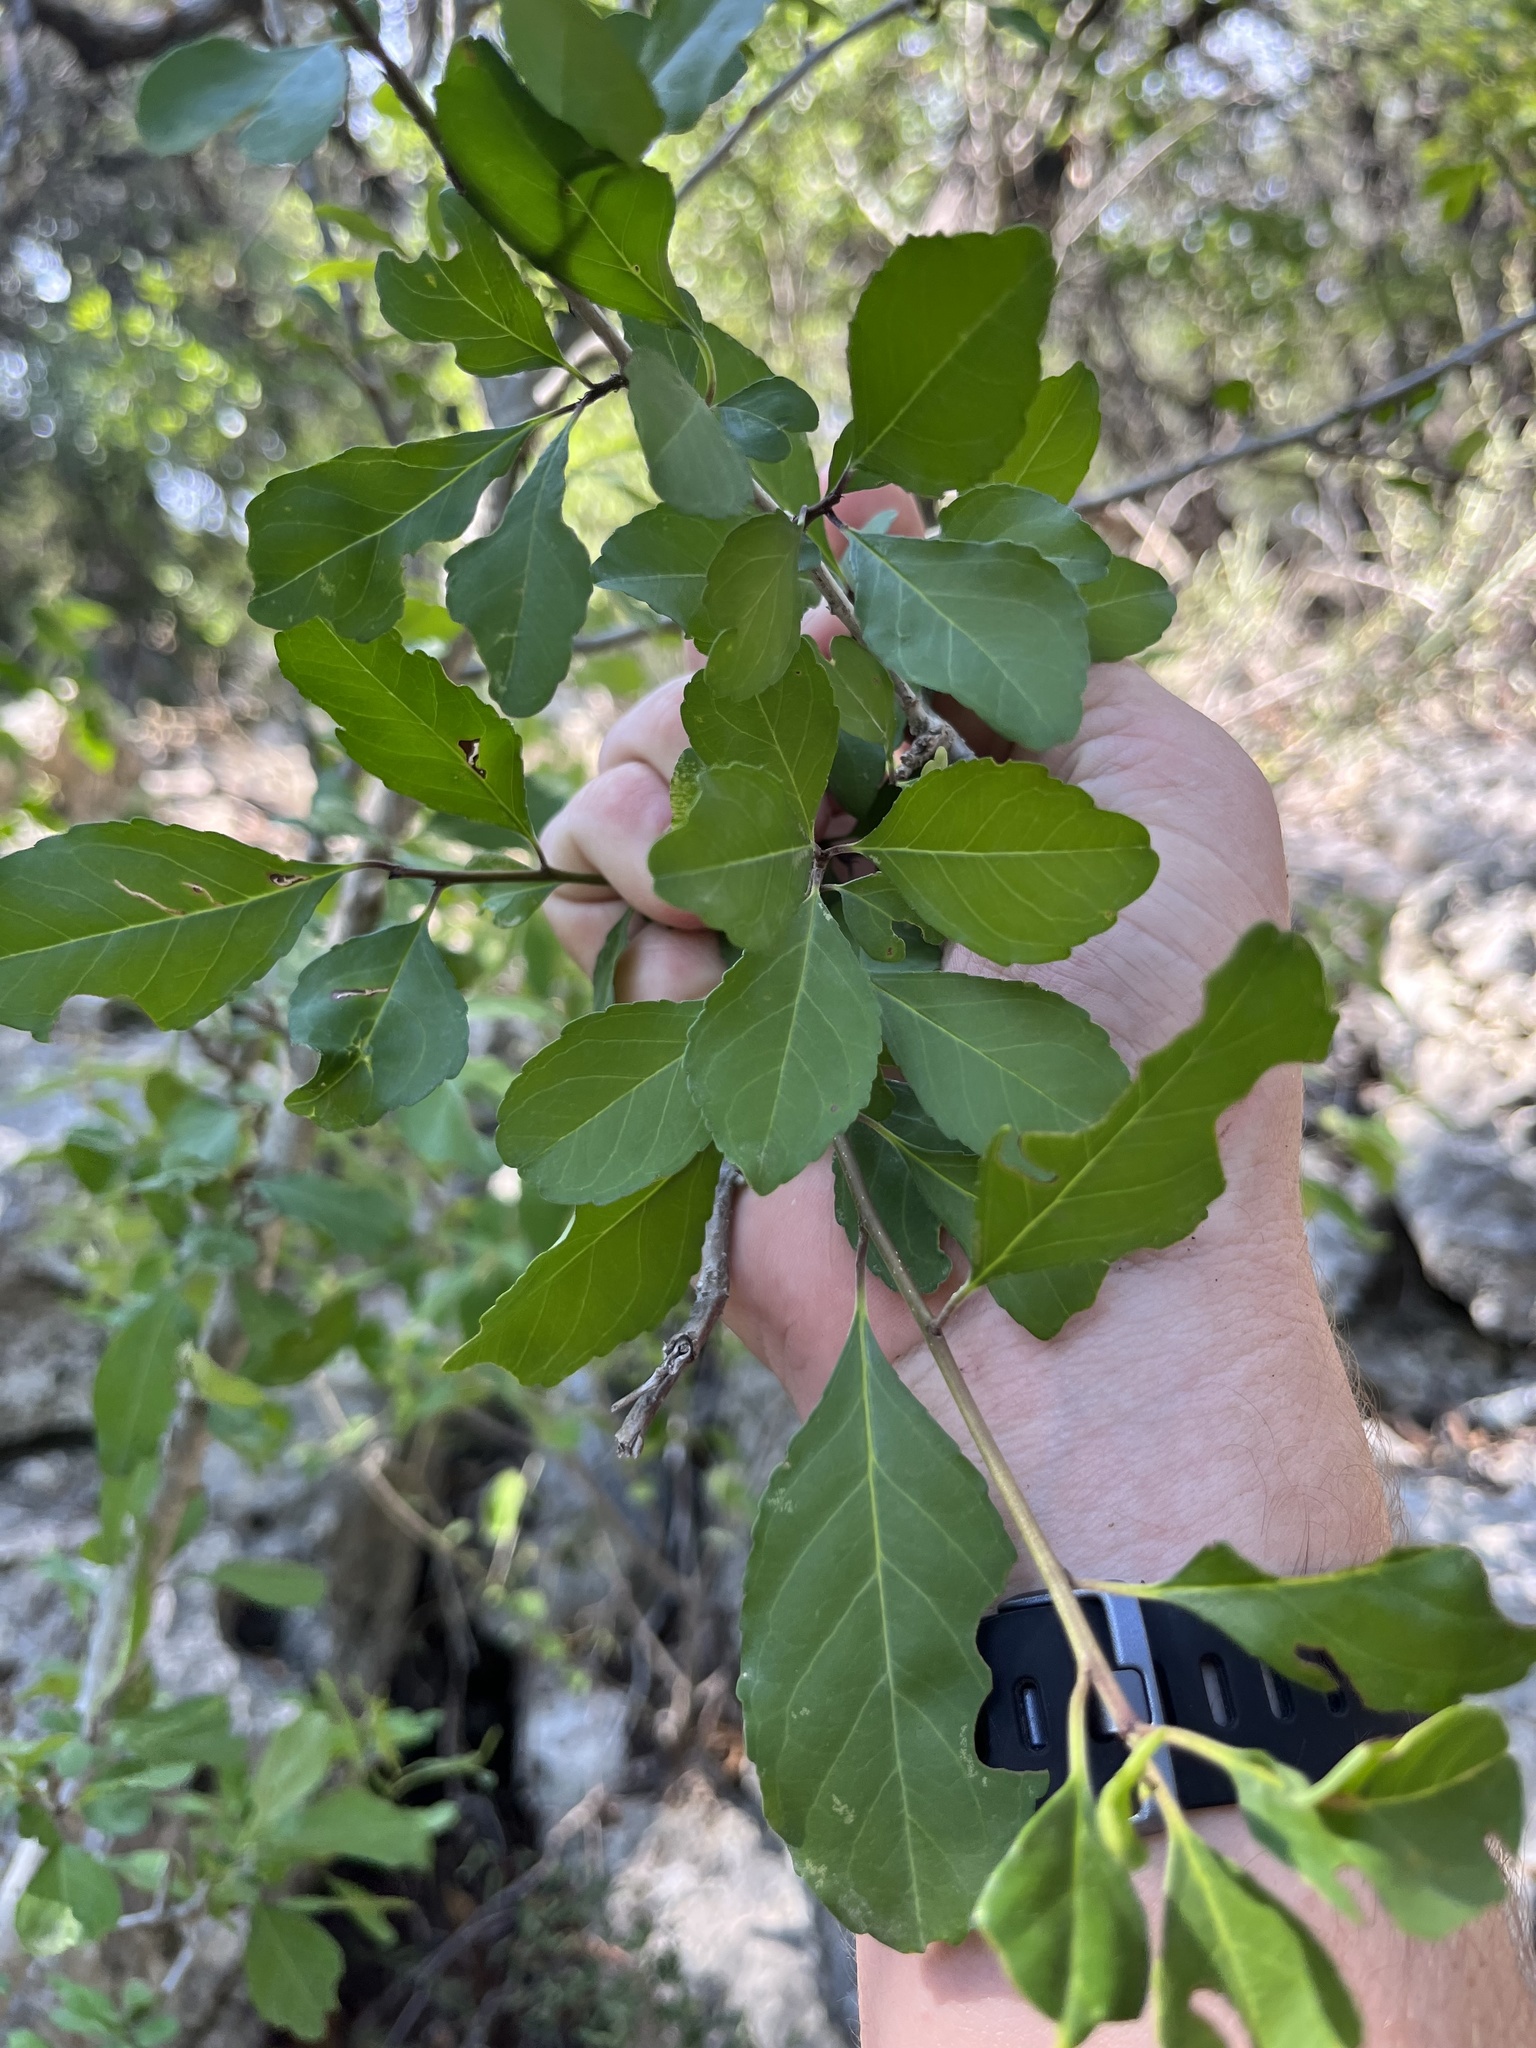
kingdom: Plantae
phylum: Tracheophyta
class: Magnoliopsida
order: Aquifoliales
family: Aquifoliaceae
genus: Ilex
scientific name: Ilex decidua
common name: Possum-haw
